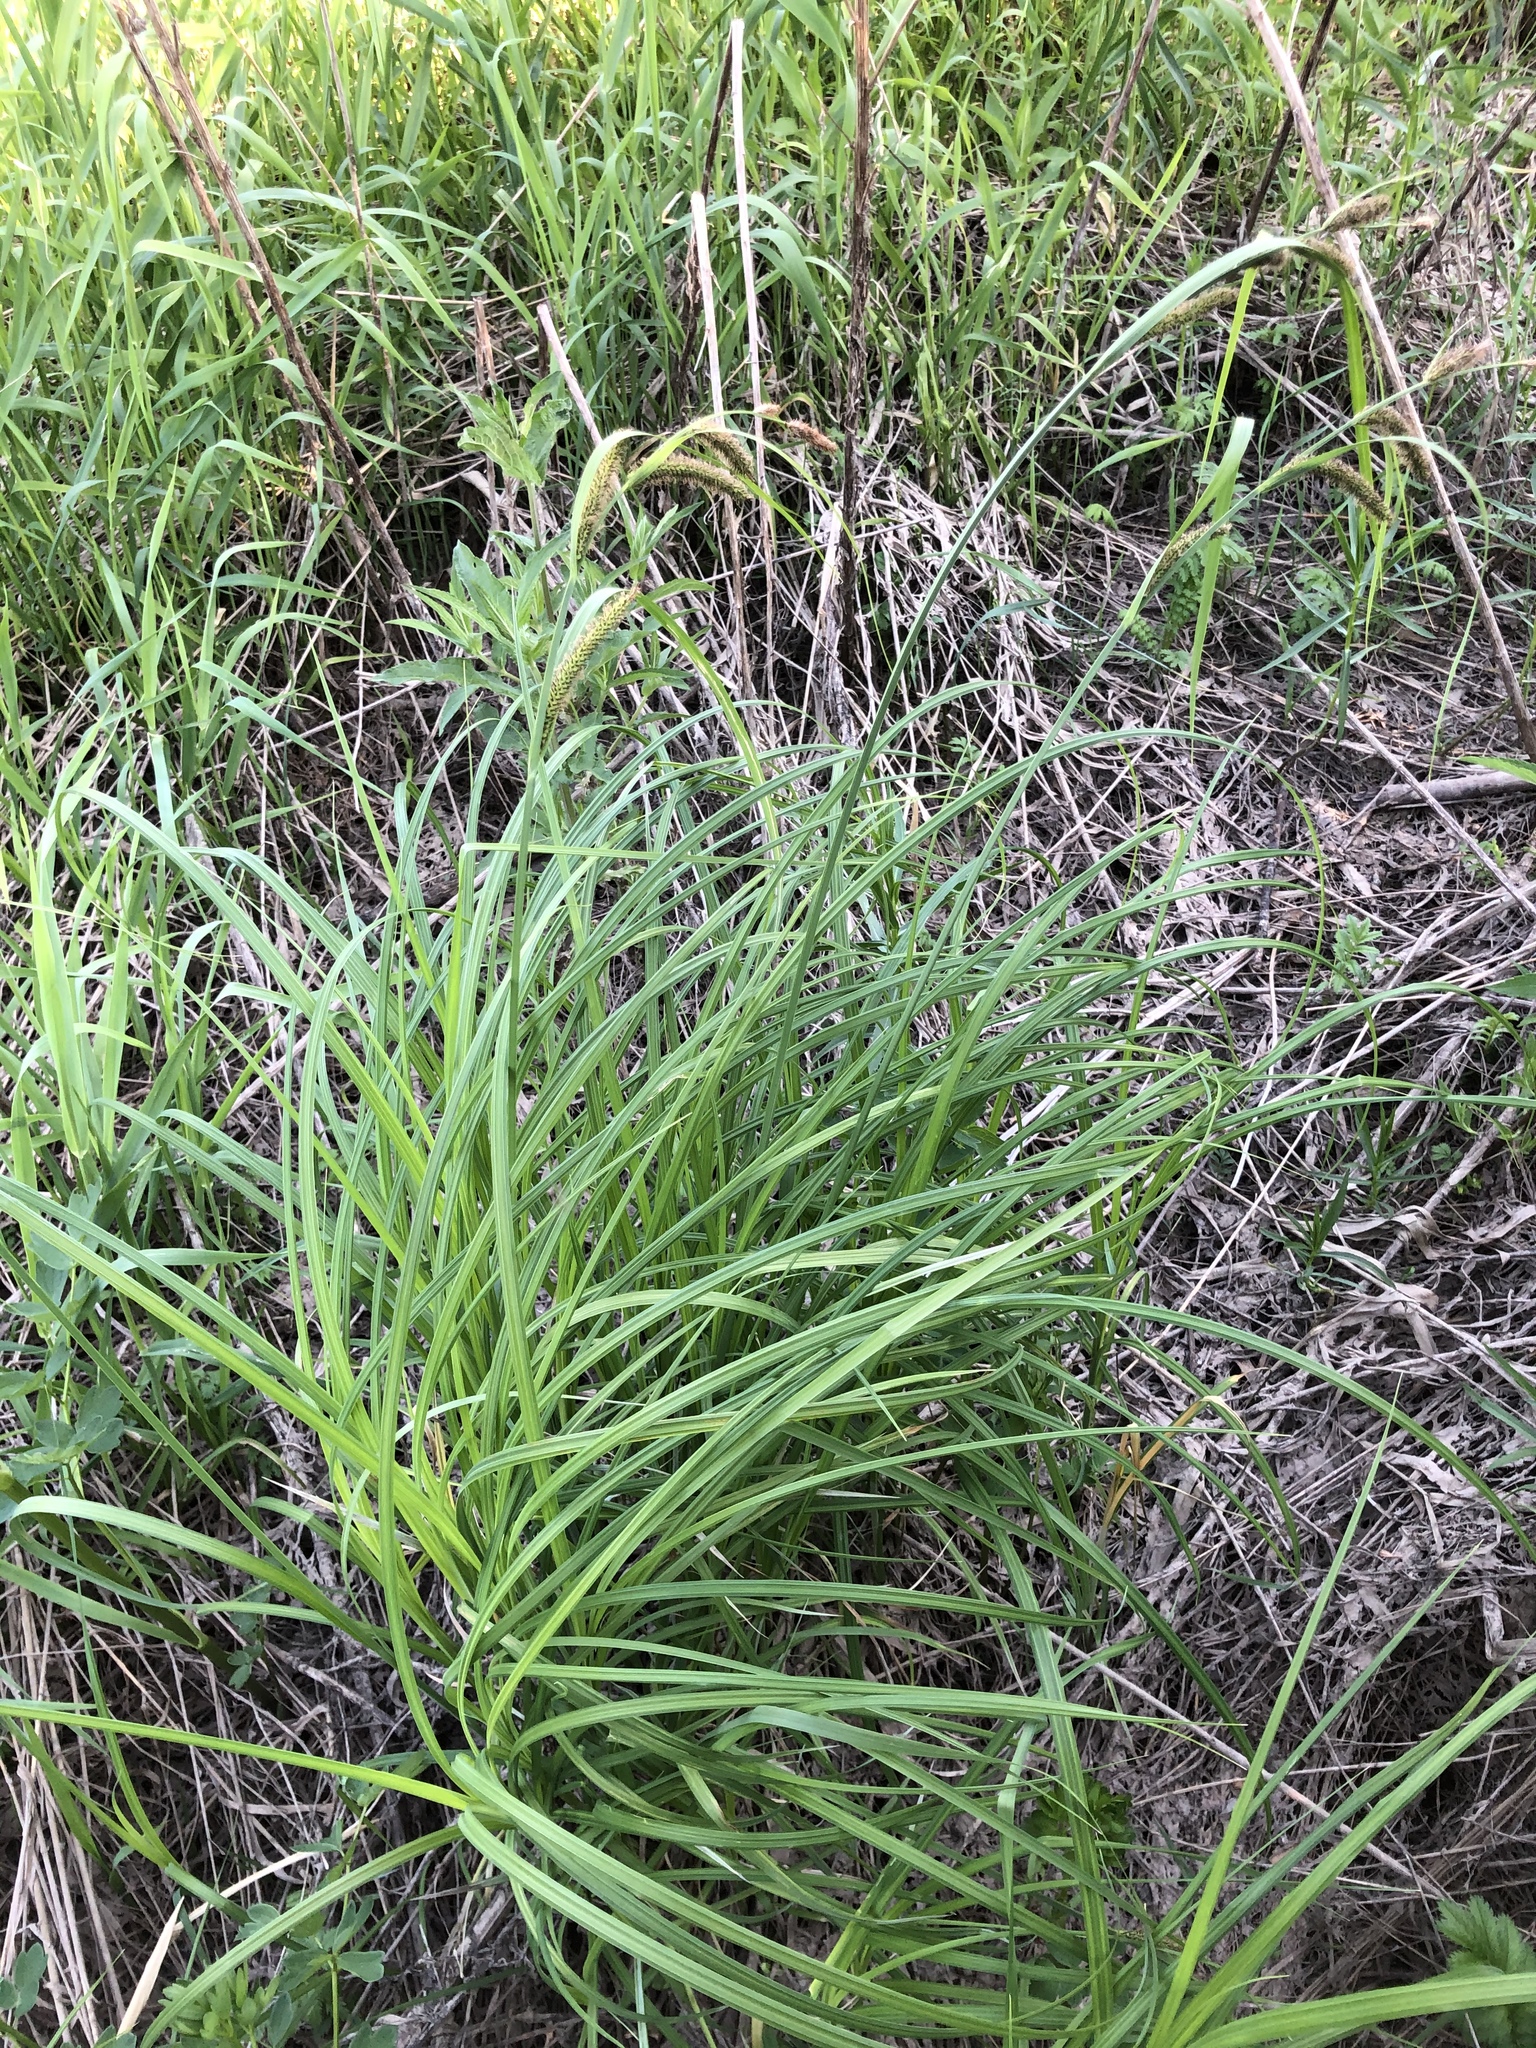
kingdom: Plantae
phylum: Tracheophyta
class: Liliopsida
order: Poales
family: Cyperaceae
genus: Carex
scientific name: Carex acuta
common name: Slender tufted-sedge
